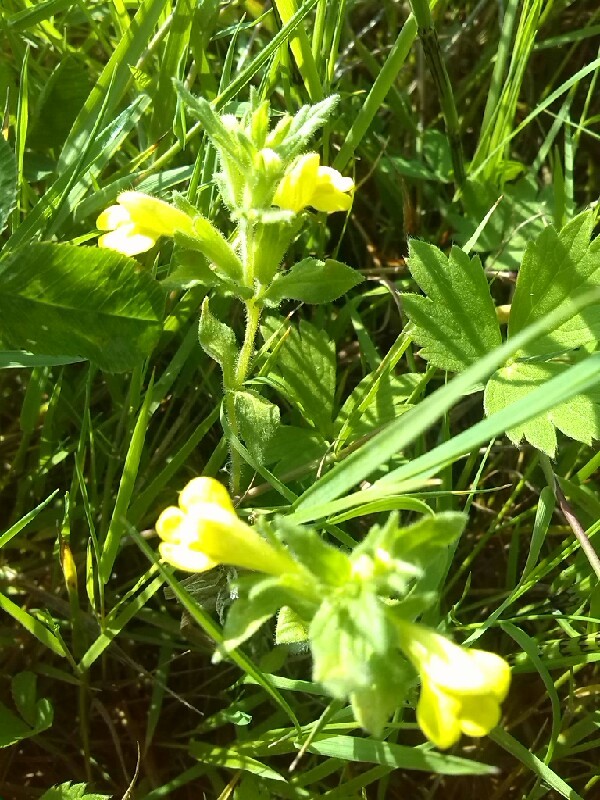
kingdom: Plantae
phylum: Tracheophyta
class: Magnoliopsida
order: Lamiales
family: Orobanchaceae
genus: Bellardia
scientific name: Bellardia viscosa
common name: Sticky parentucellia
